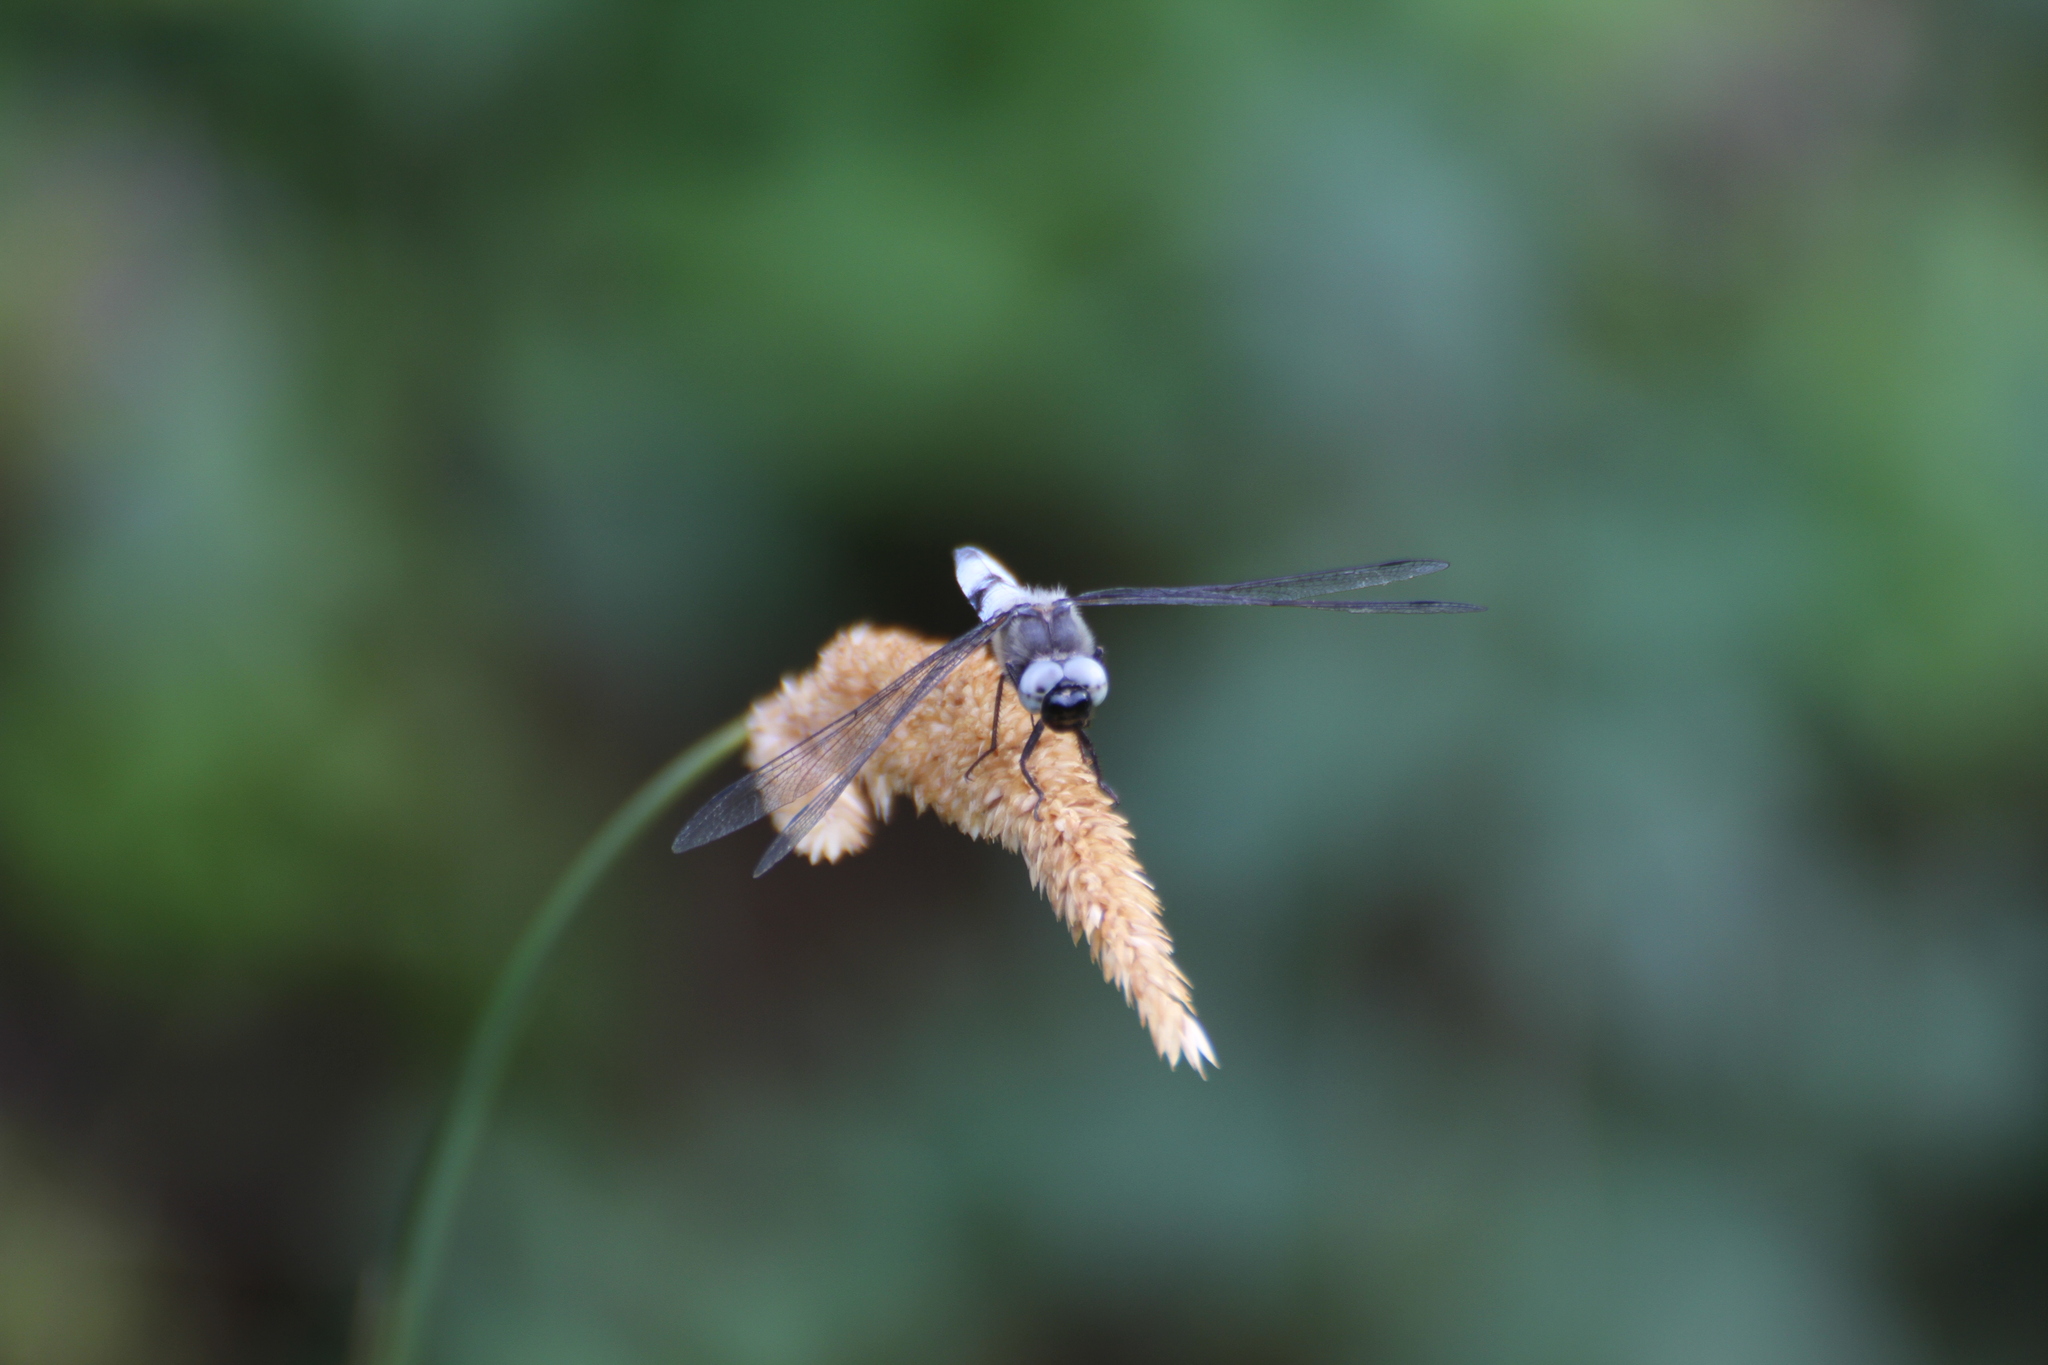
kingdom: Animalia
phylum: Arthropoda
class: Insecta
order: Odonata
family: Libellulidae
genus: Libellula
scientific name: Libellula fulva
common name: Blue chaser
